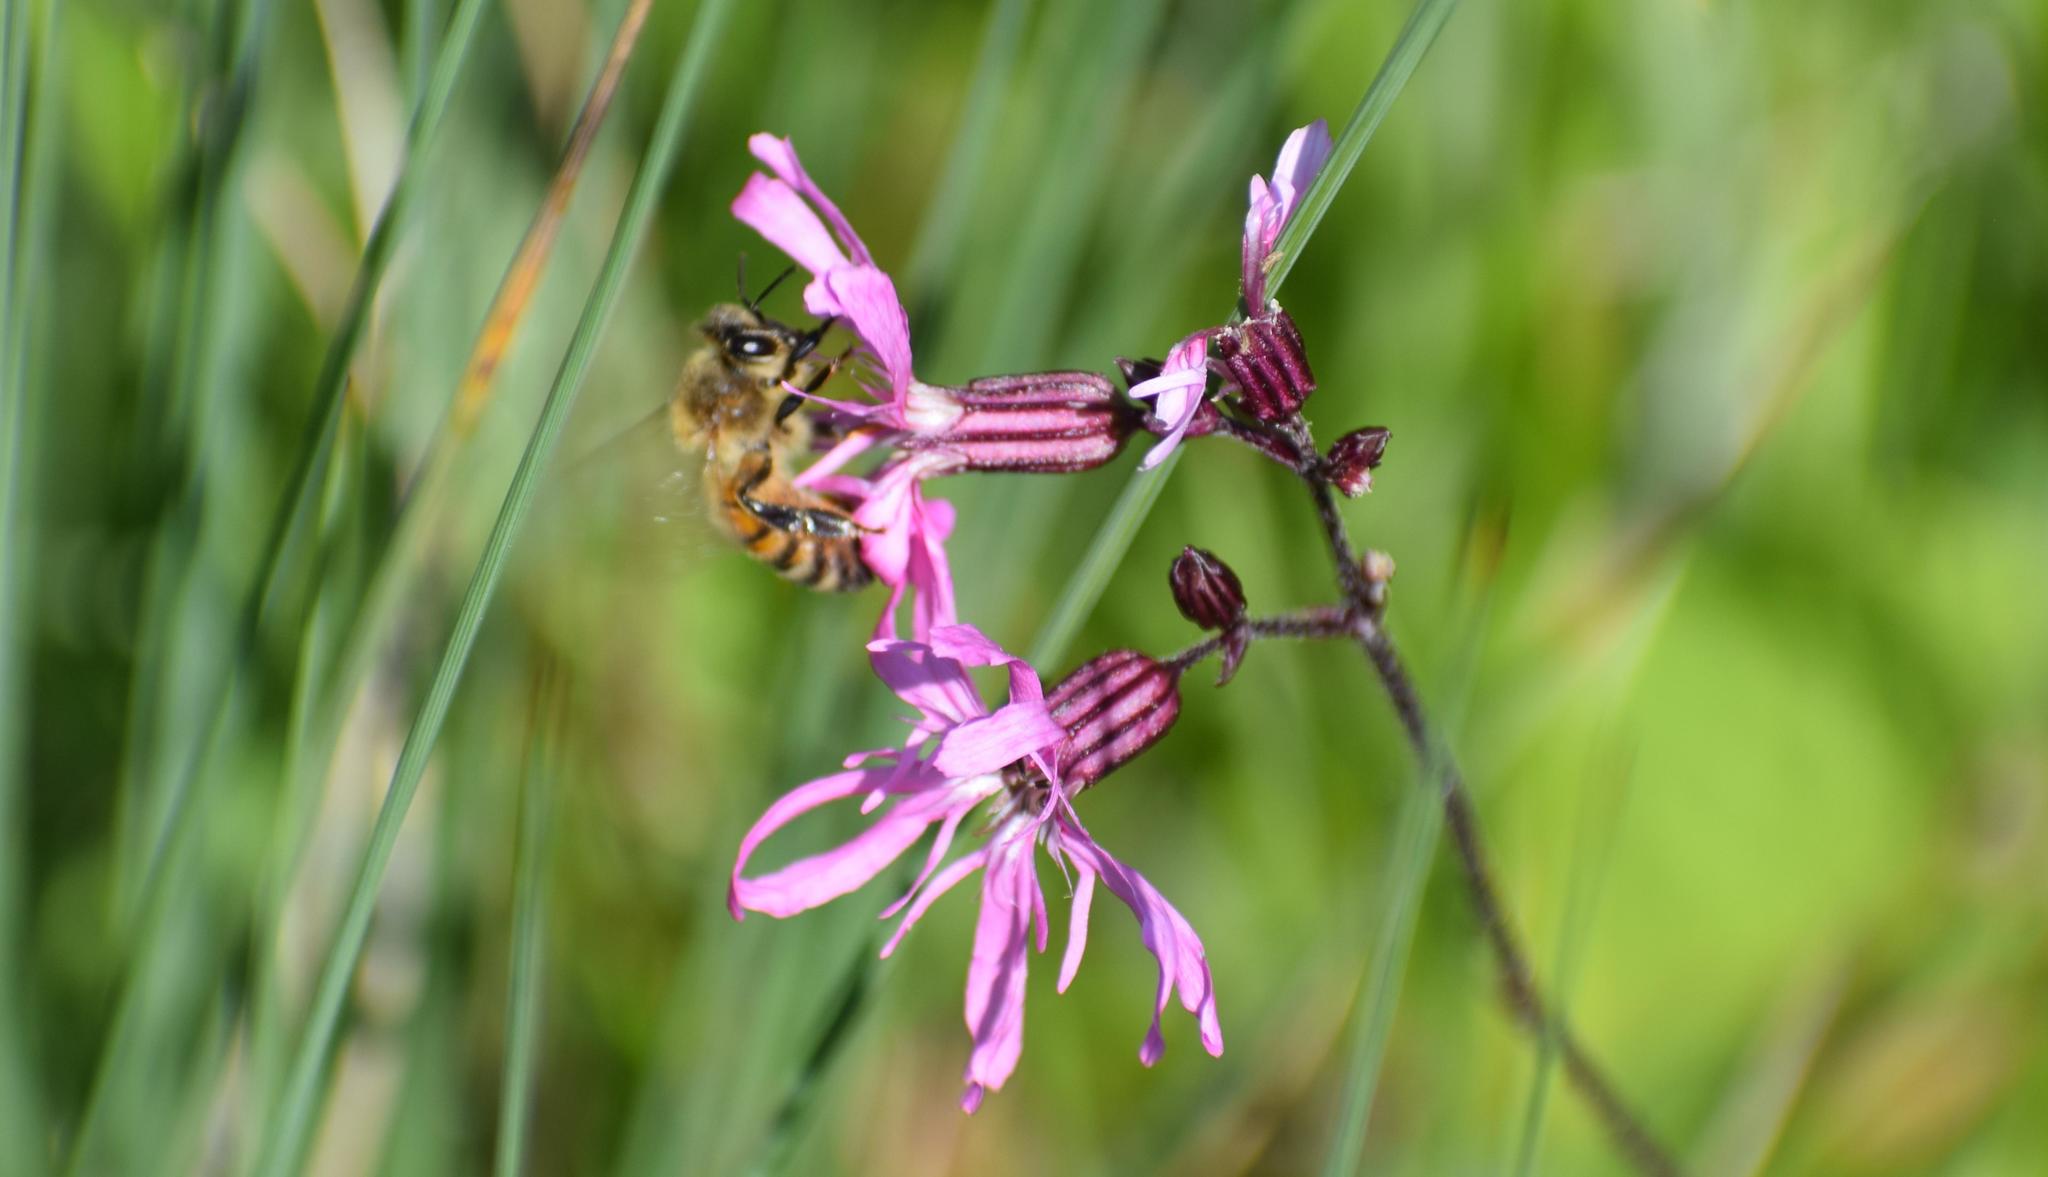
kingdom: Plantae
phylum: Tracheophyta
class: Magnoliopsida
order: Caryophyllales
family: Caryophyllaceae
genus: Silene
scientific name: Silene flos-cuculi
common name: Ragged-robin
